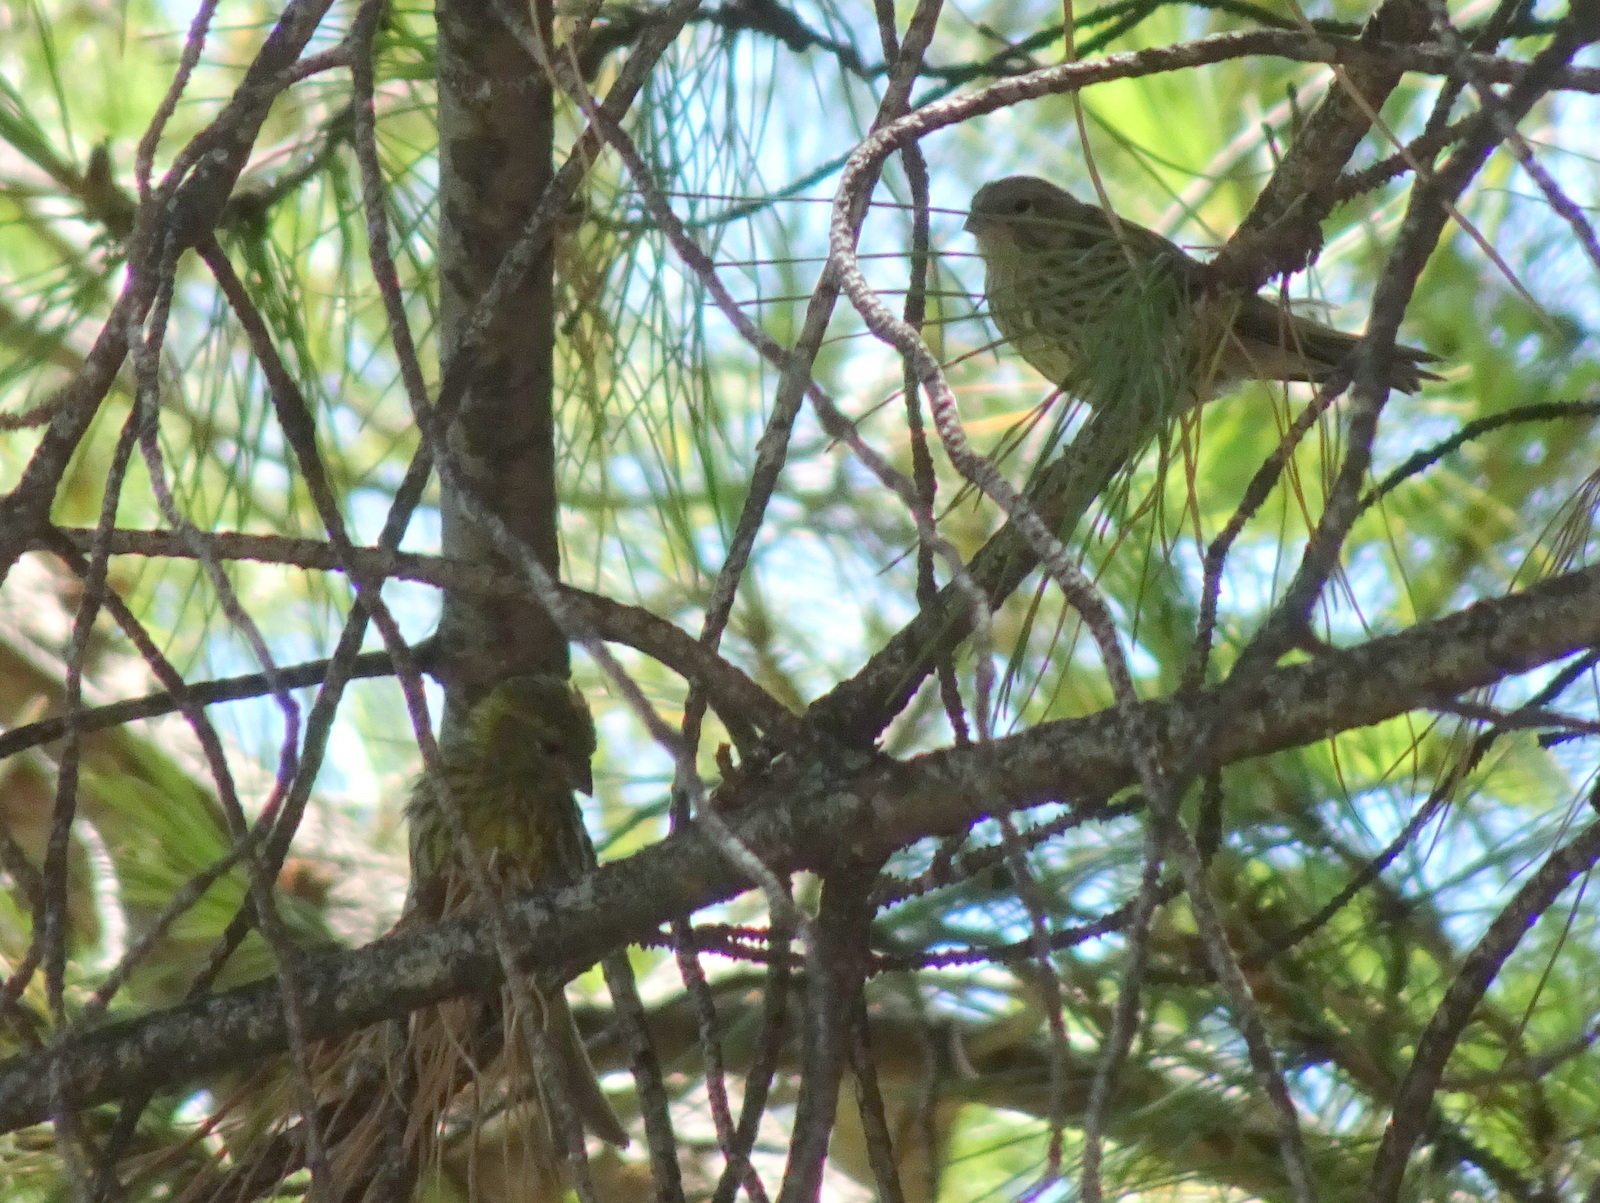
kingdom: Animalia
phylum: Chordata
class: Aves
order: Passeriformes
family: Fringillidae
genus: Serinus
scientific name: Serinus serinus
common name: European serin
